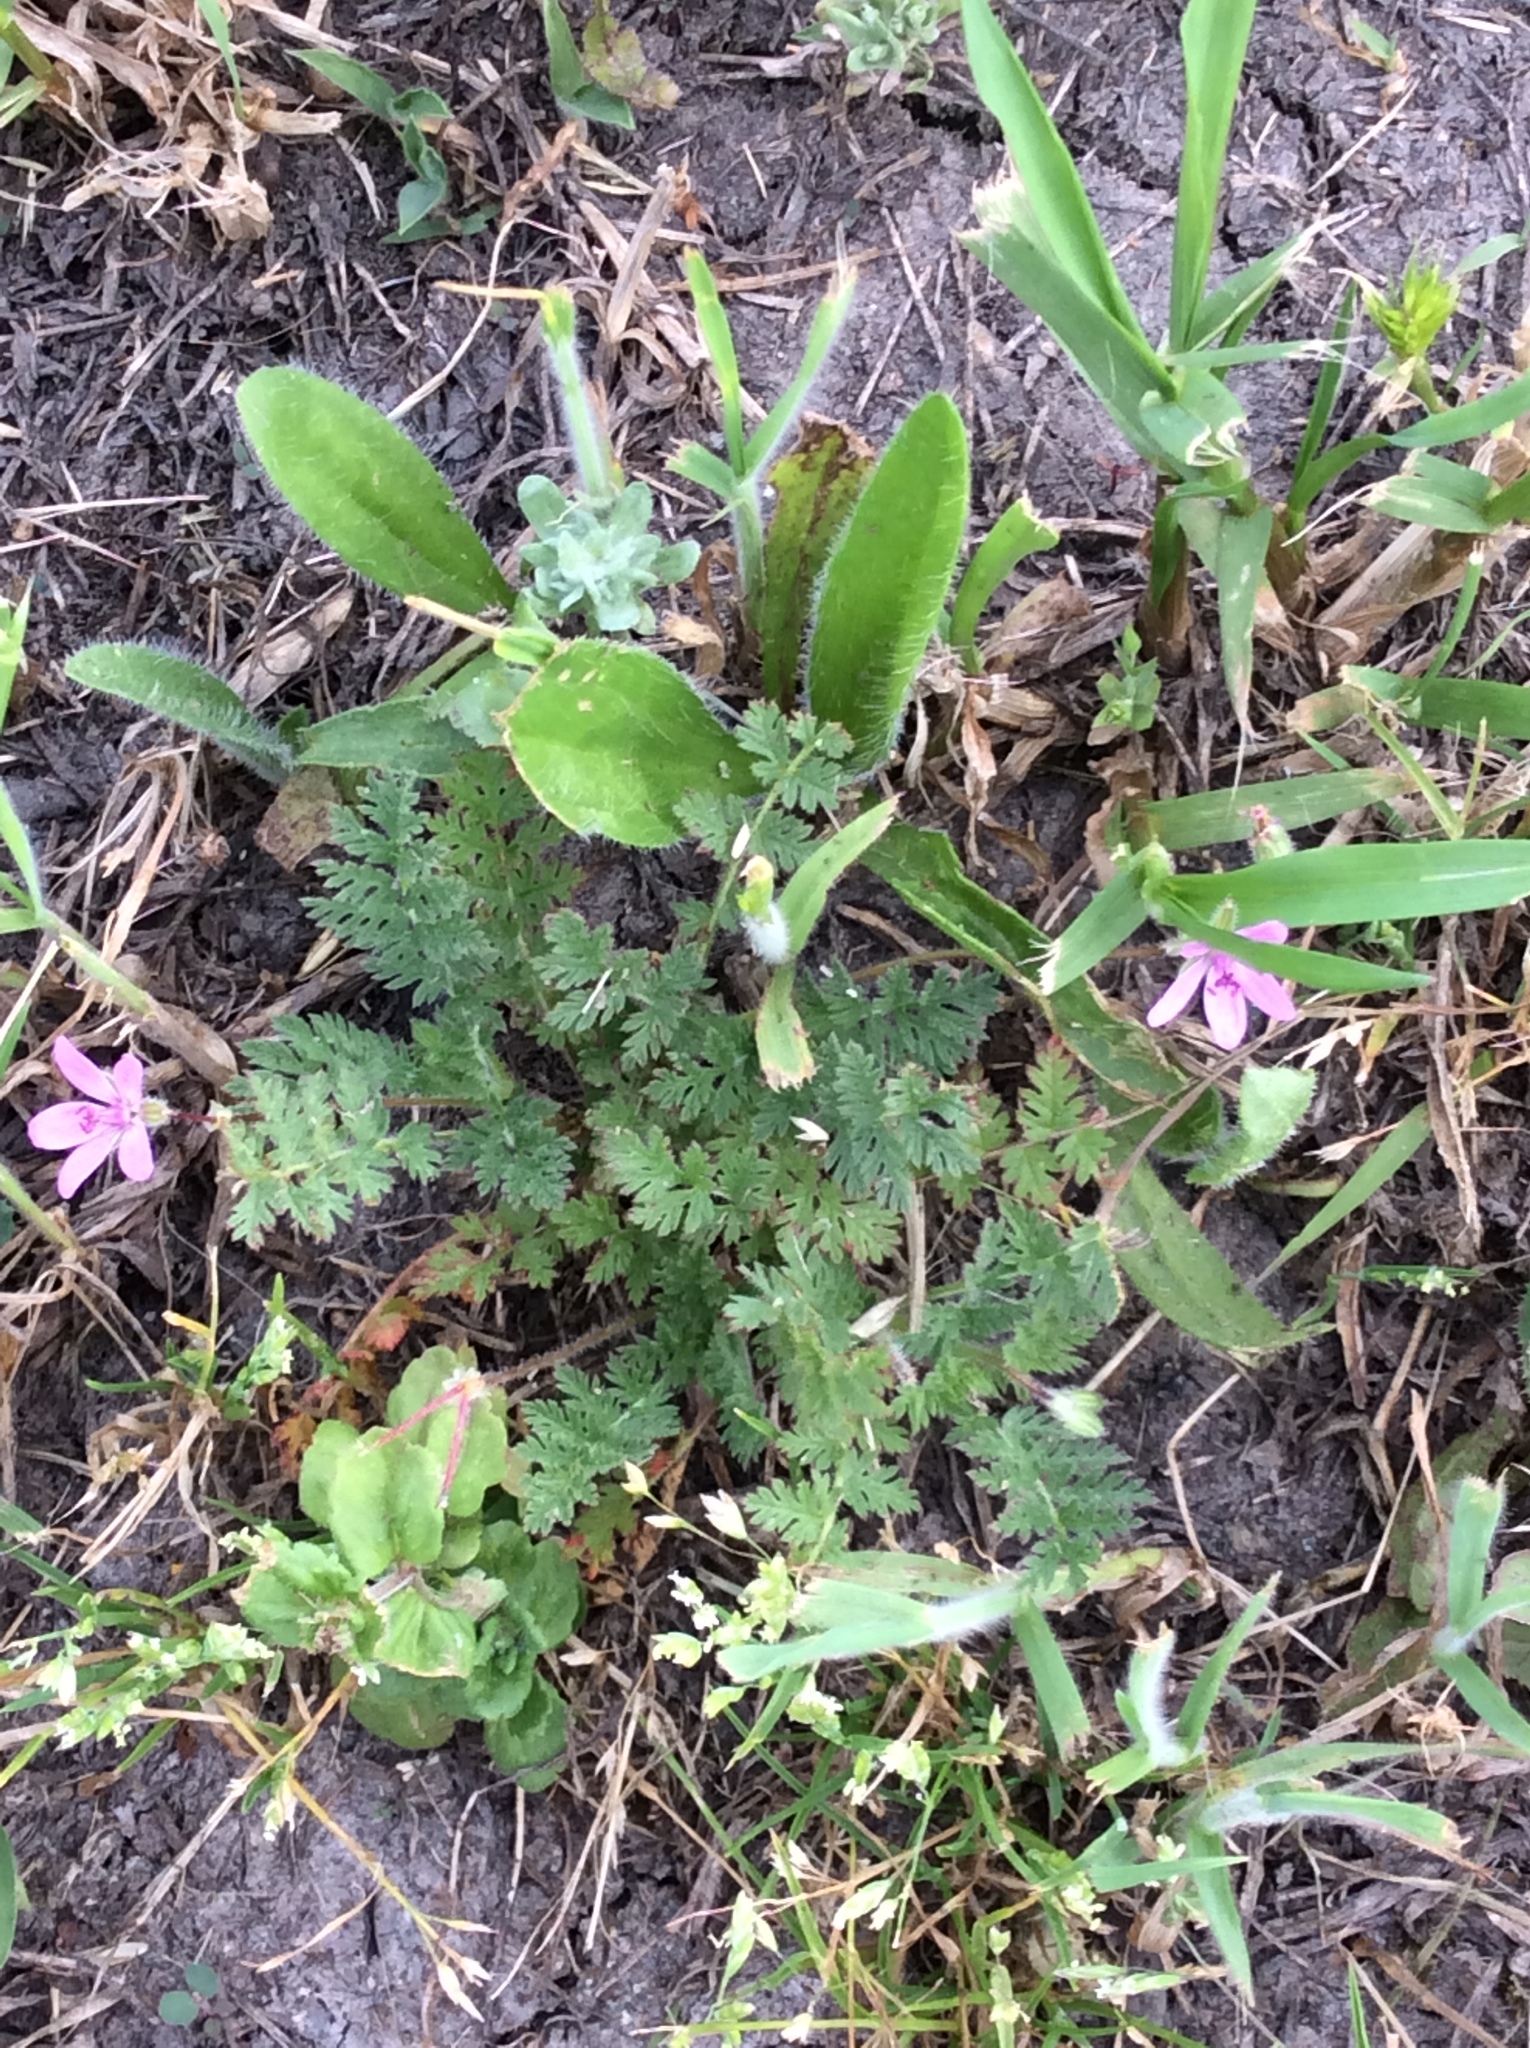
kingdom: Plantae
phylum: Tracheophyta
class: Magnoliopsida
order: Geraniales
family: Geraniaceae
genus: Erodium
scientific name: Erodium cicutarium
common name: Common stork's-bill
